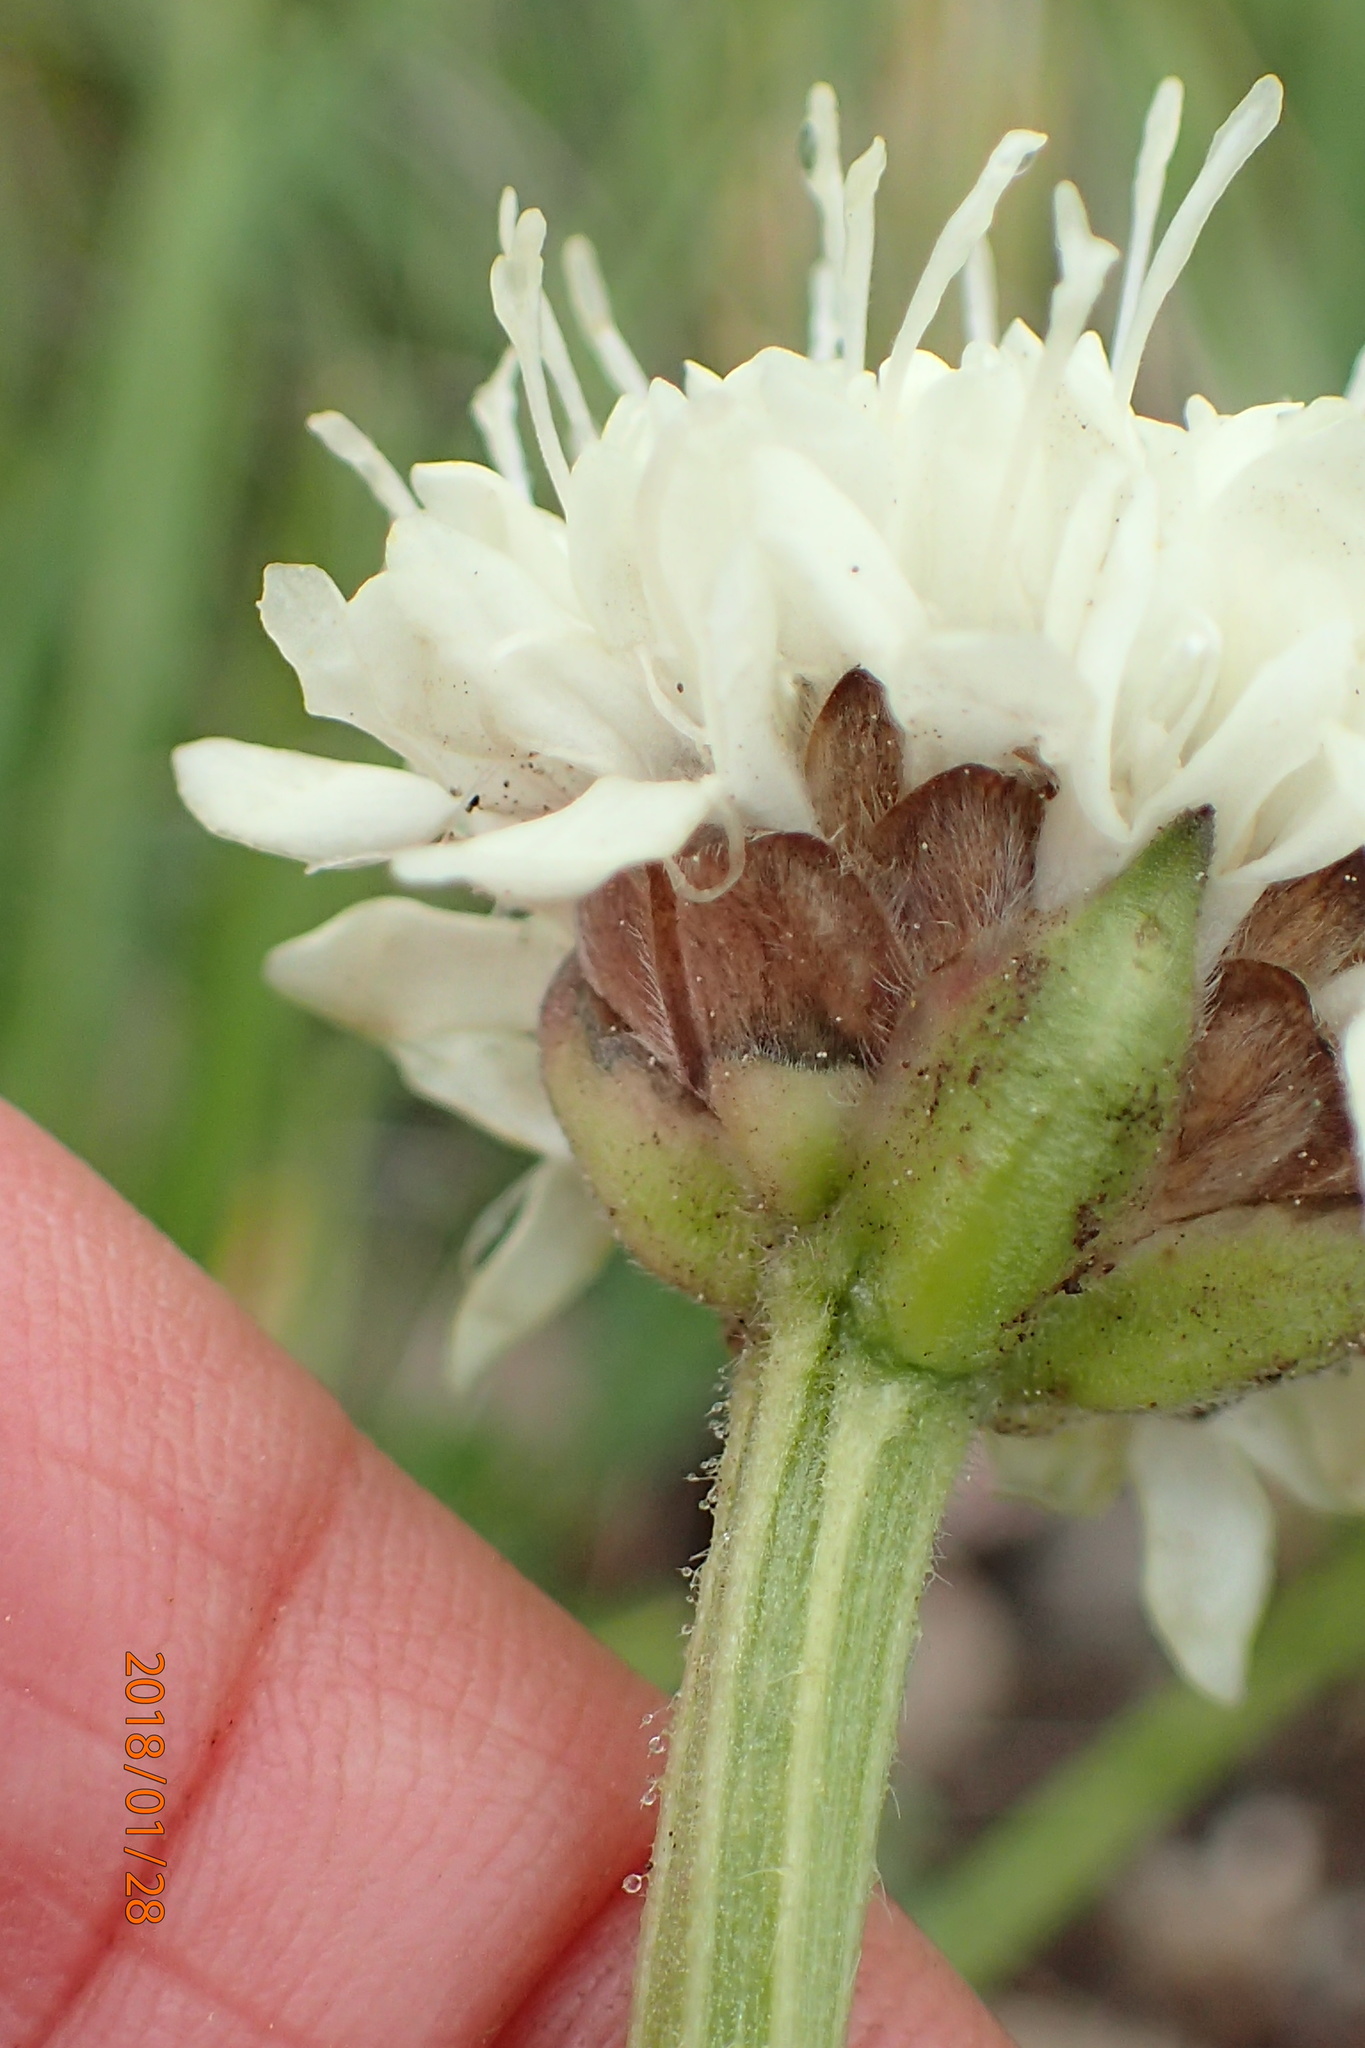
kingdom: Plantae
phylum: Tracheophyta
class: Magnoliopsida
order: Dipsacales
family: Caprifoliaceae
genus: Cephalaria
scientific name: Cephalaria galpiniana
